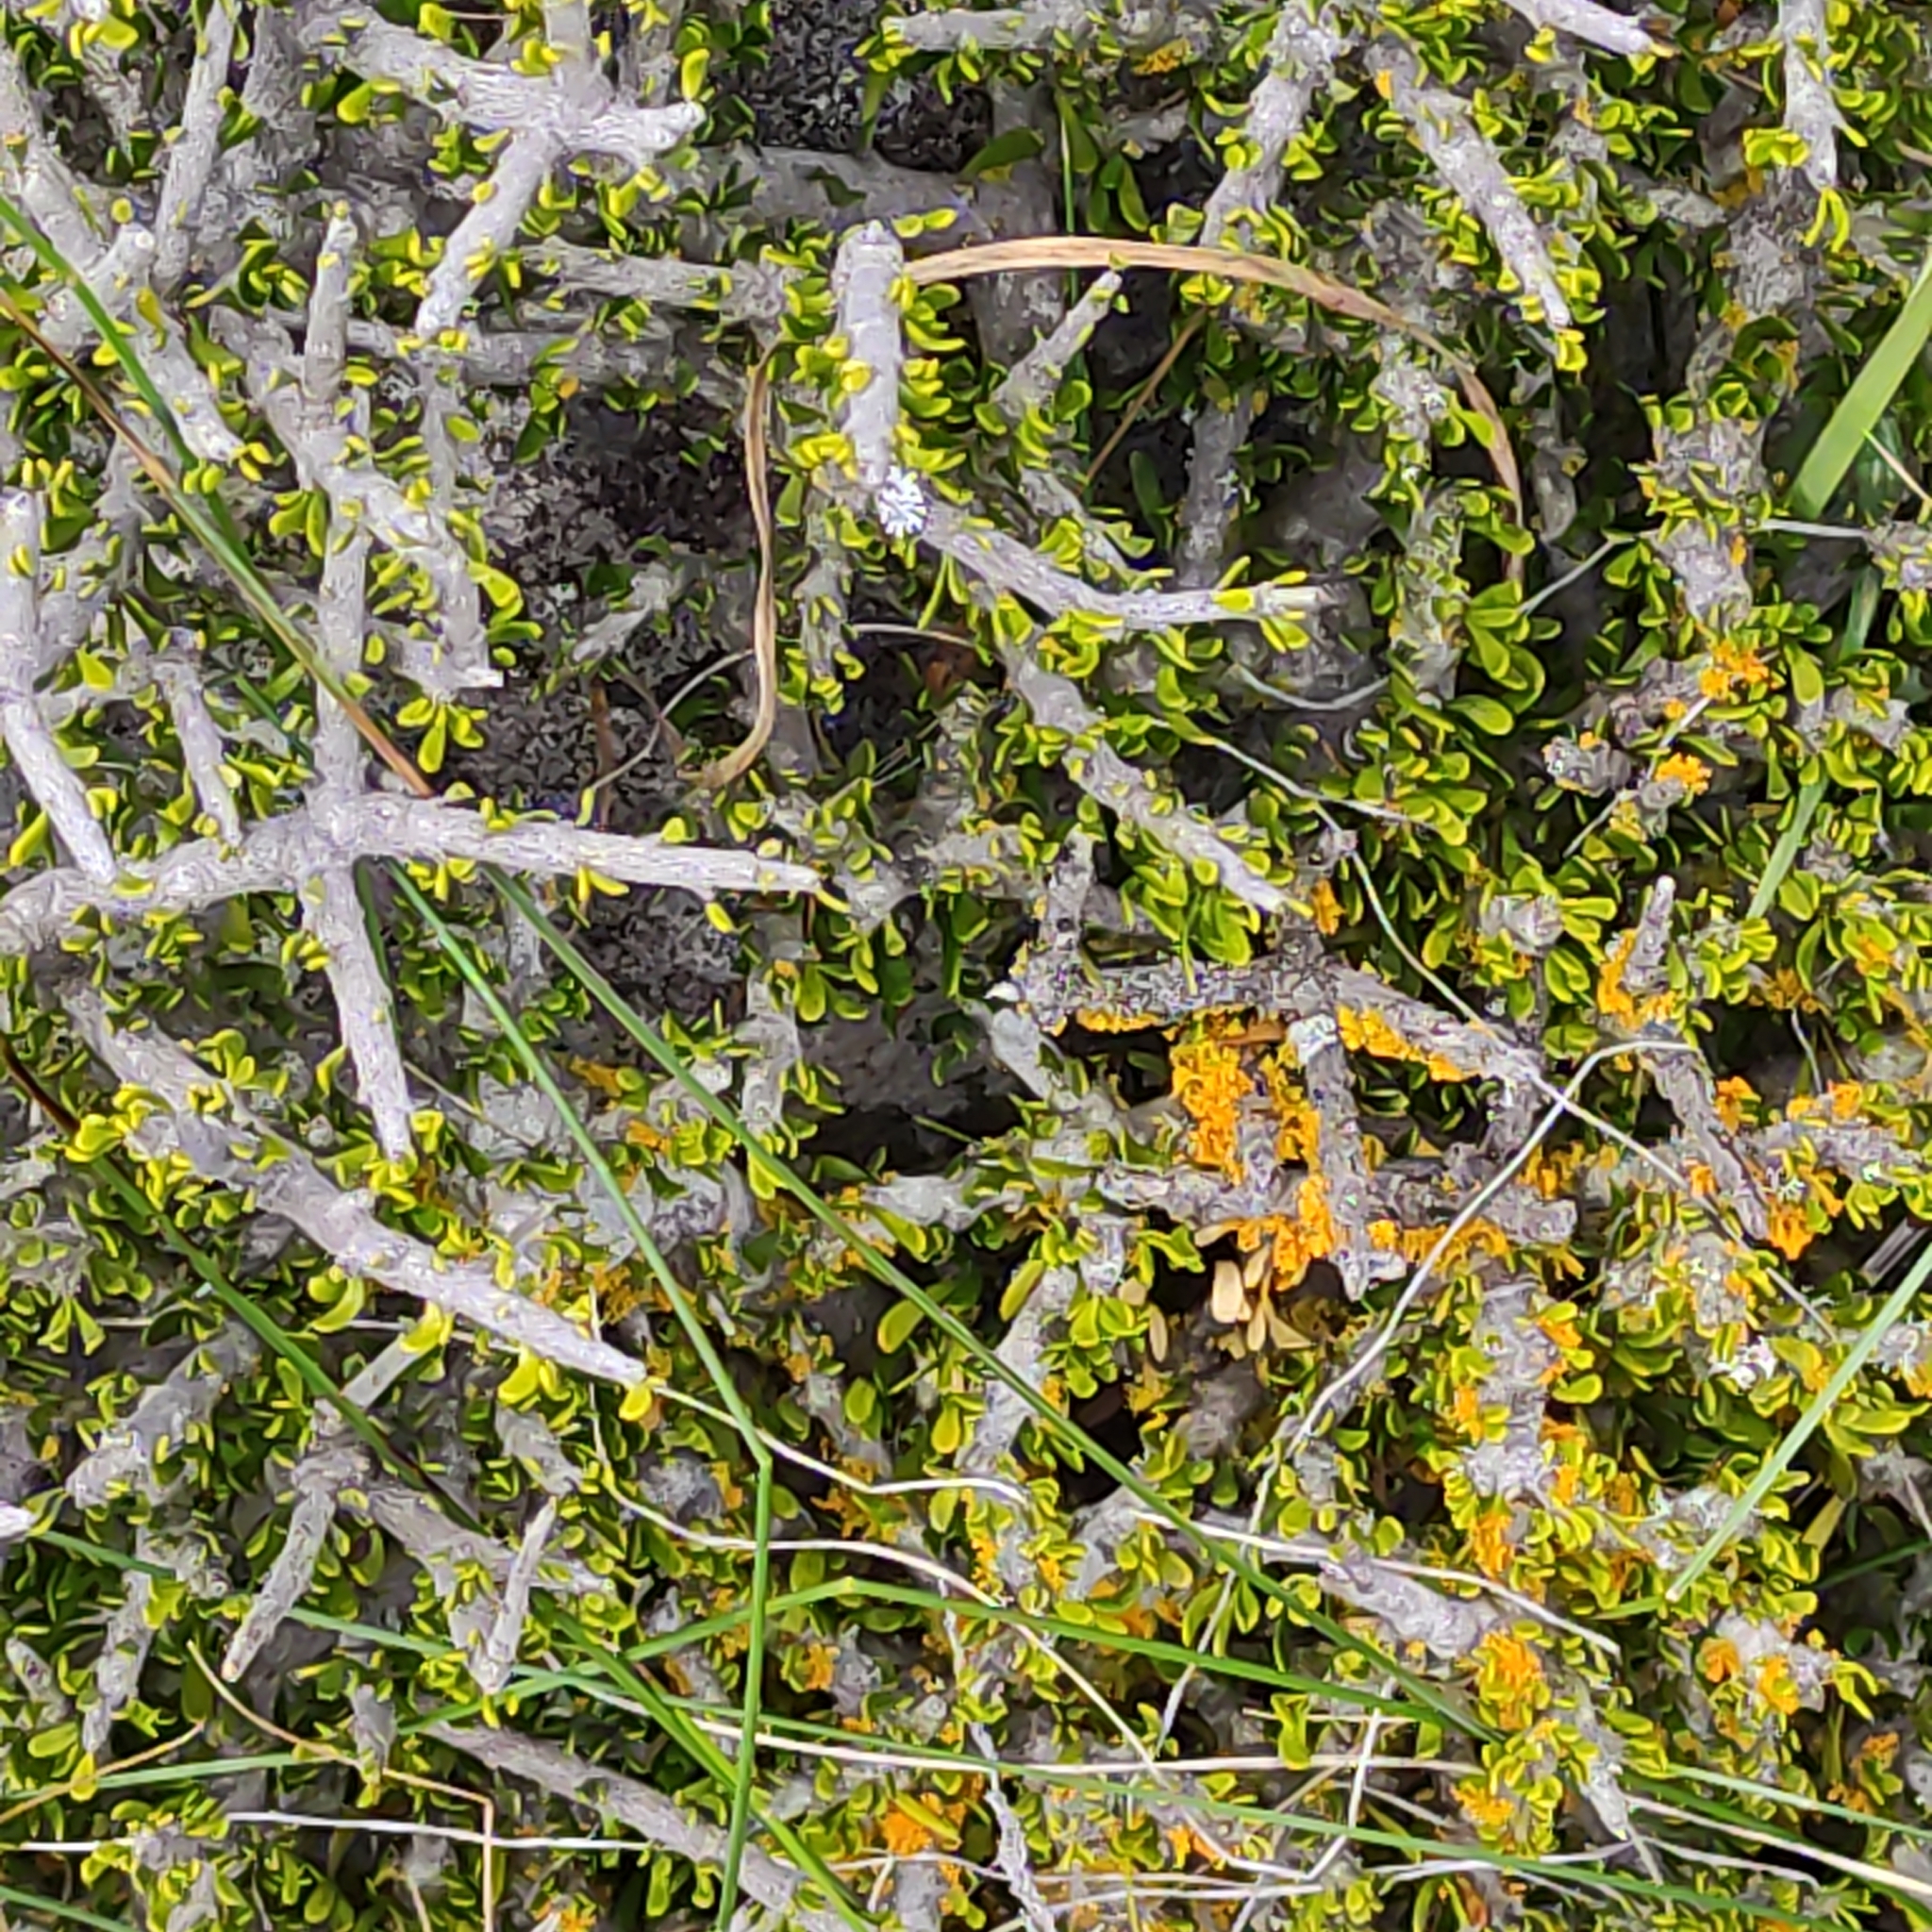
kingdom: Plantae
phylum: Tracheophyta
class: Magnoliopsida
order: Malpighiales
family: Violaceae
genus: Melicytus
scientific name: Melicytus alpinus
